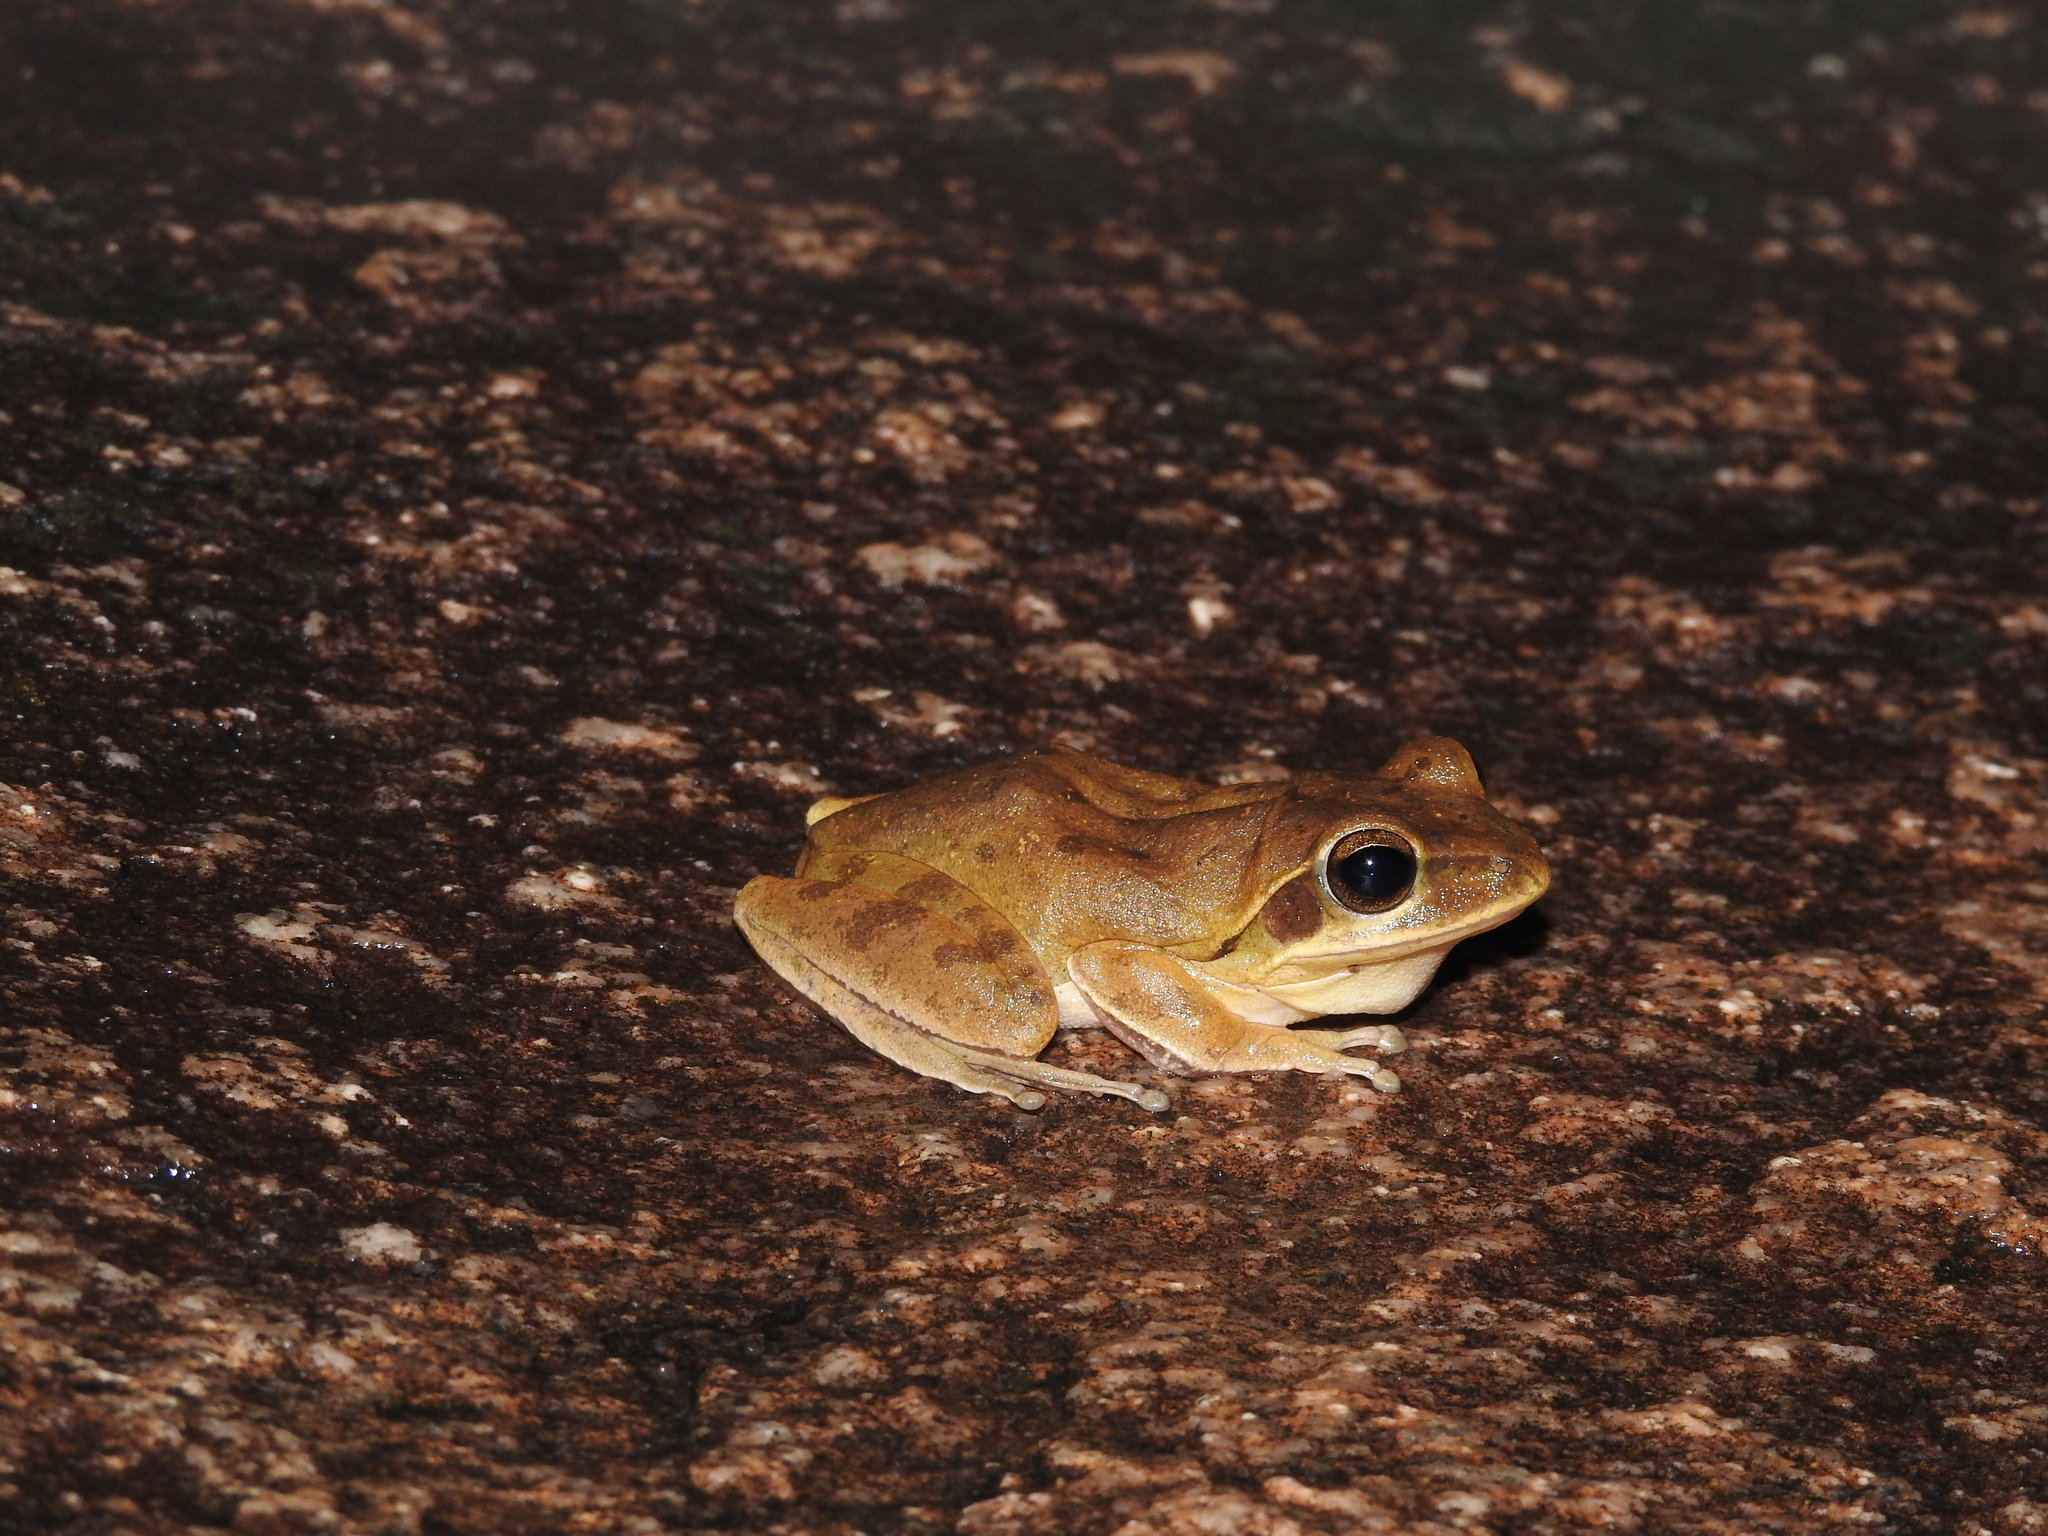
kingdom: Animalia
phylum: Chordata
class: Amphibia
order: Anura
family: Rhacophoridae
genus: Polypedates
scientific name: Polypedates maculatus
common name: Himalayan tree frog
